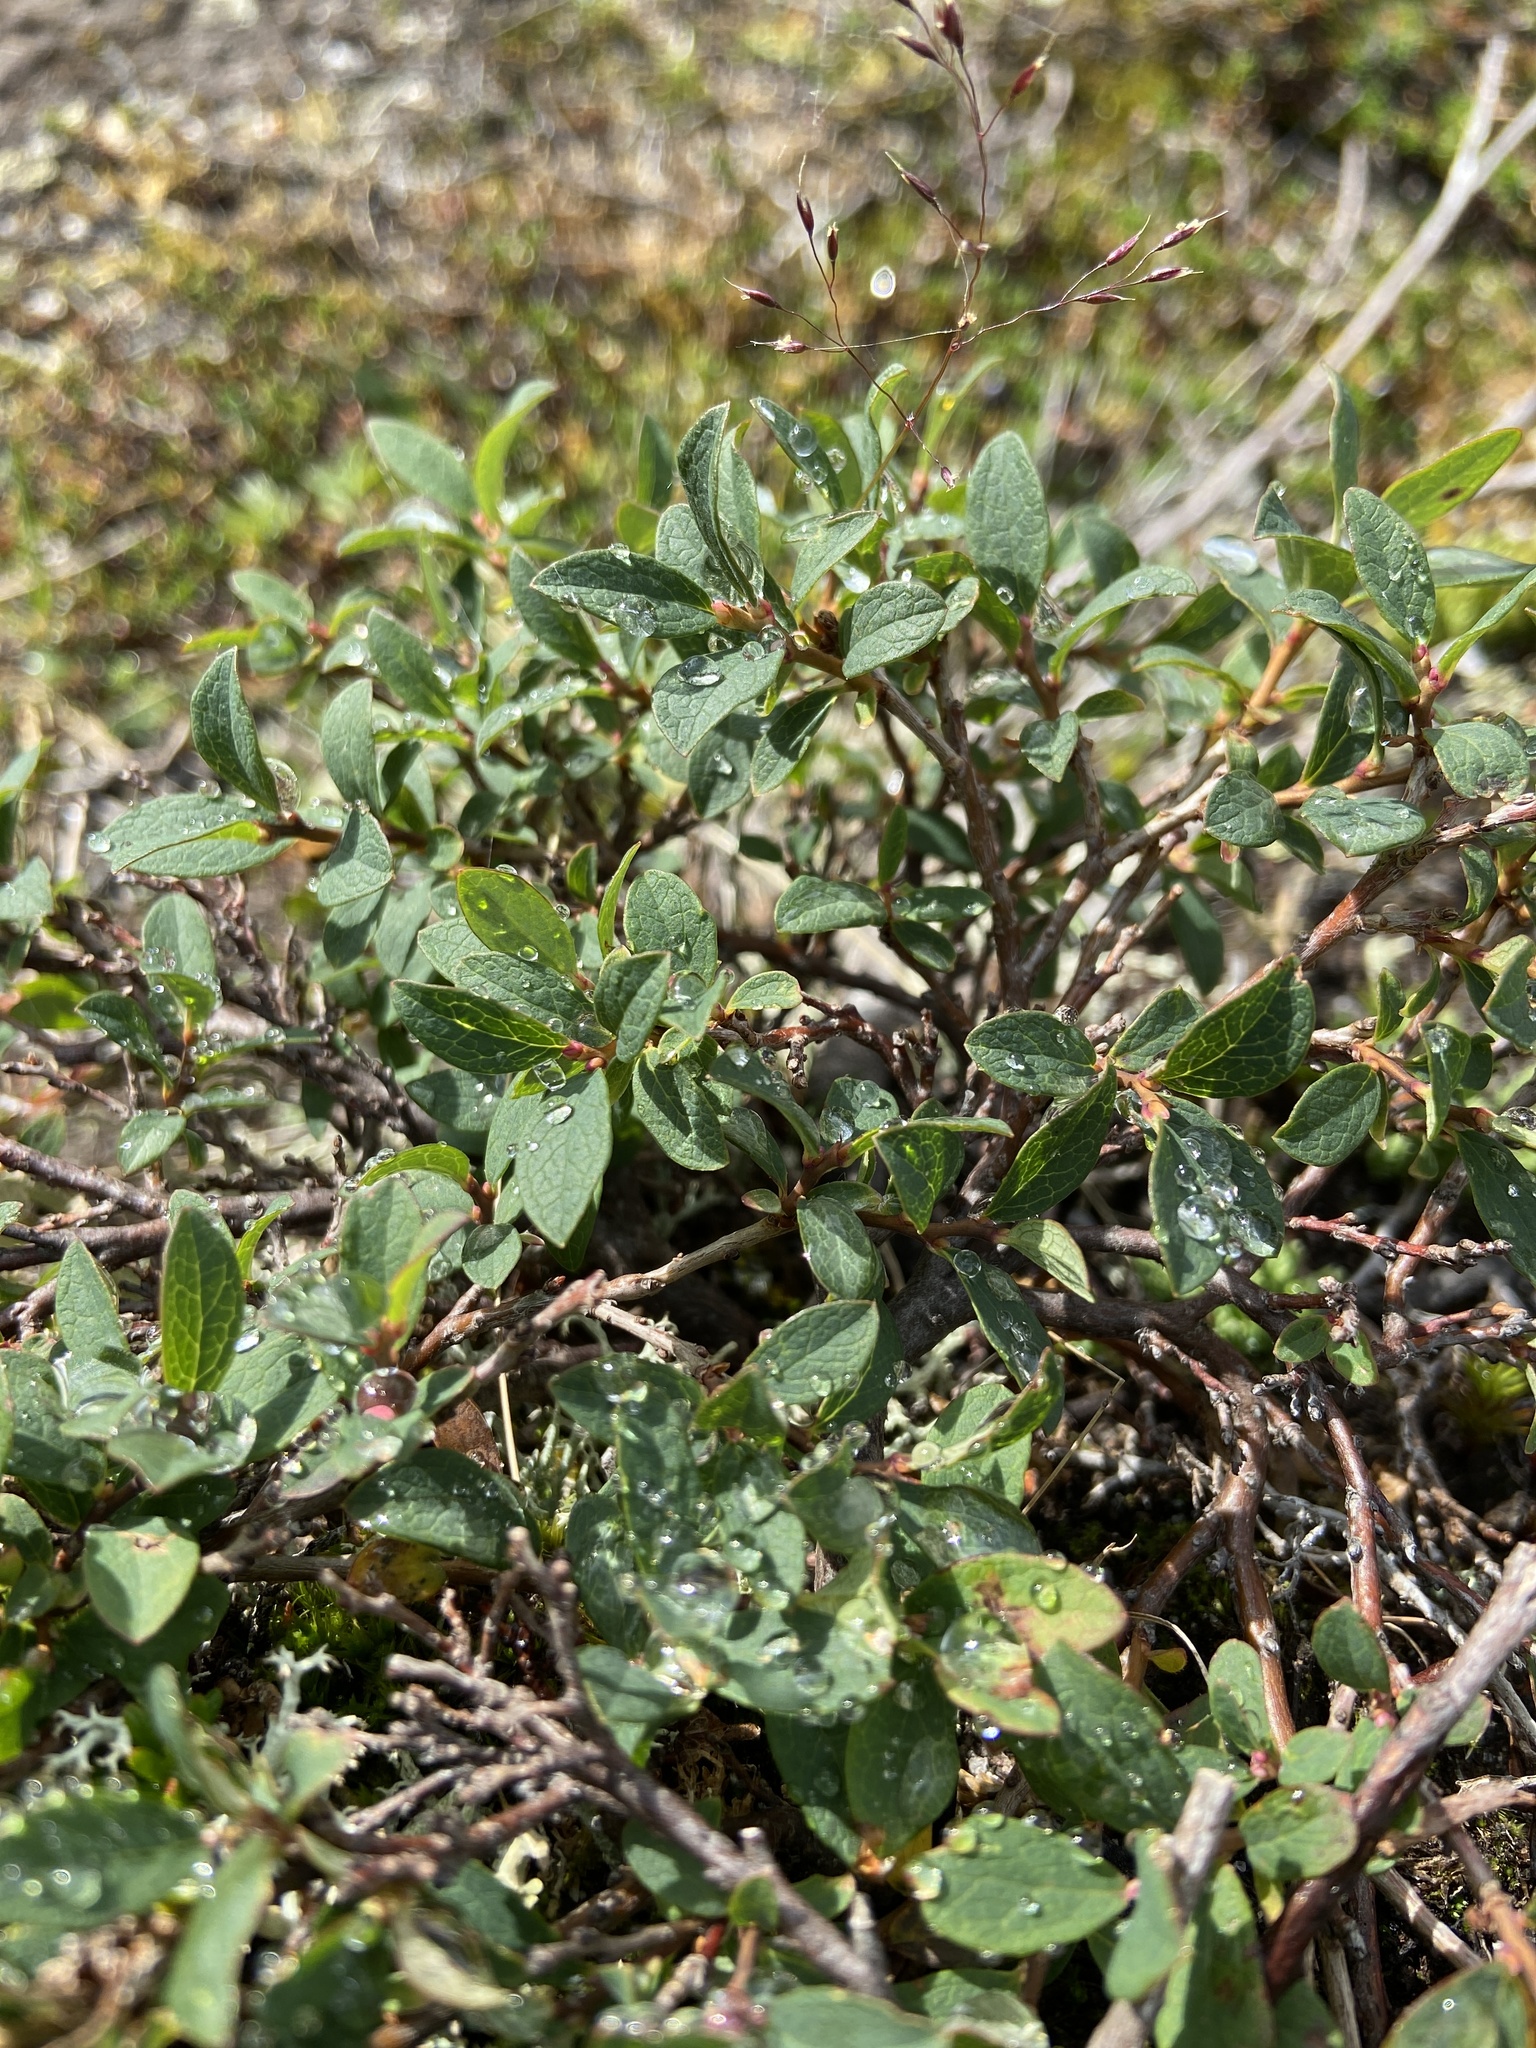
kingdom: Plantae
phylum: Tracheophyta
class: Magnoliopsida
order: Ericales
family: Ericaceae
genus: Vaccinium
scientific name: Vaccinium uliginosum
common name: Bog bilberry
